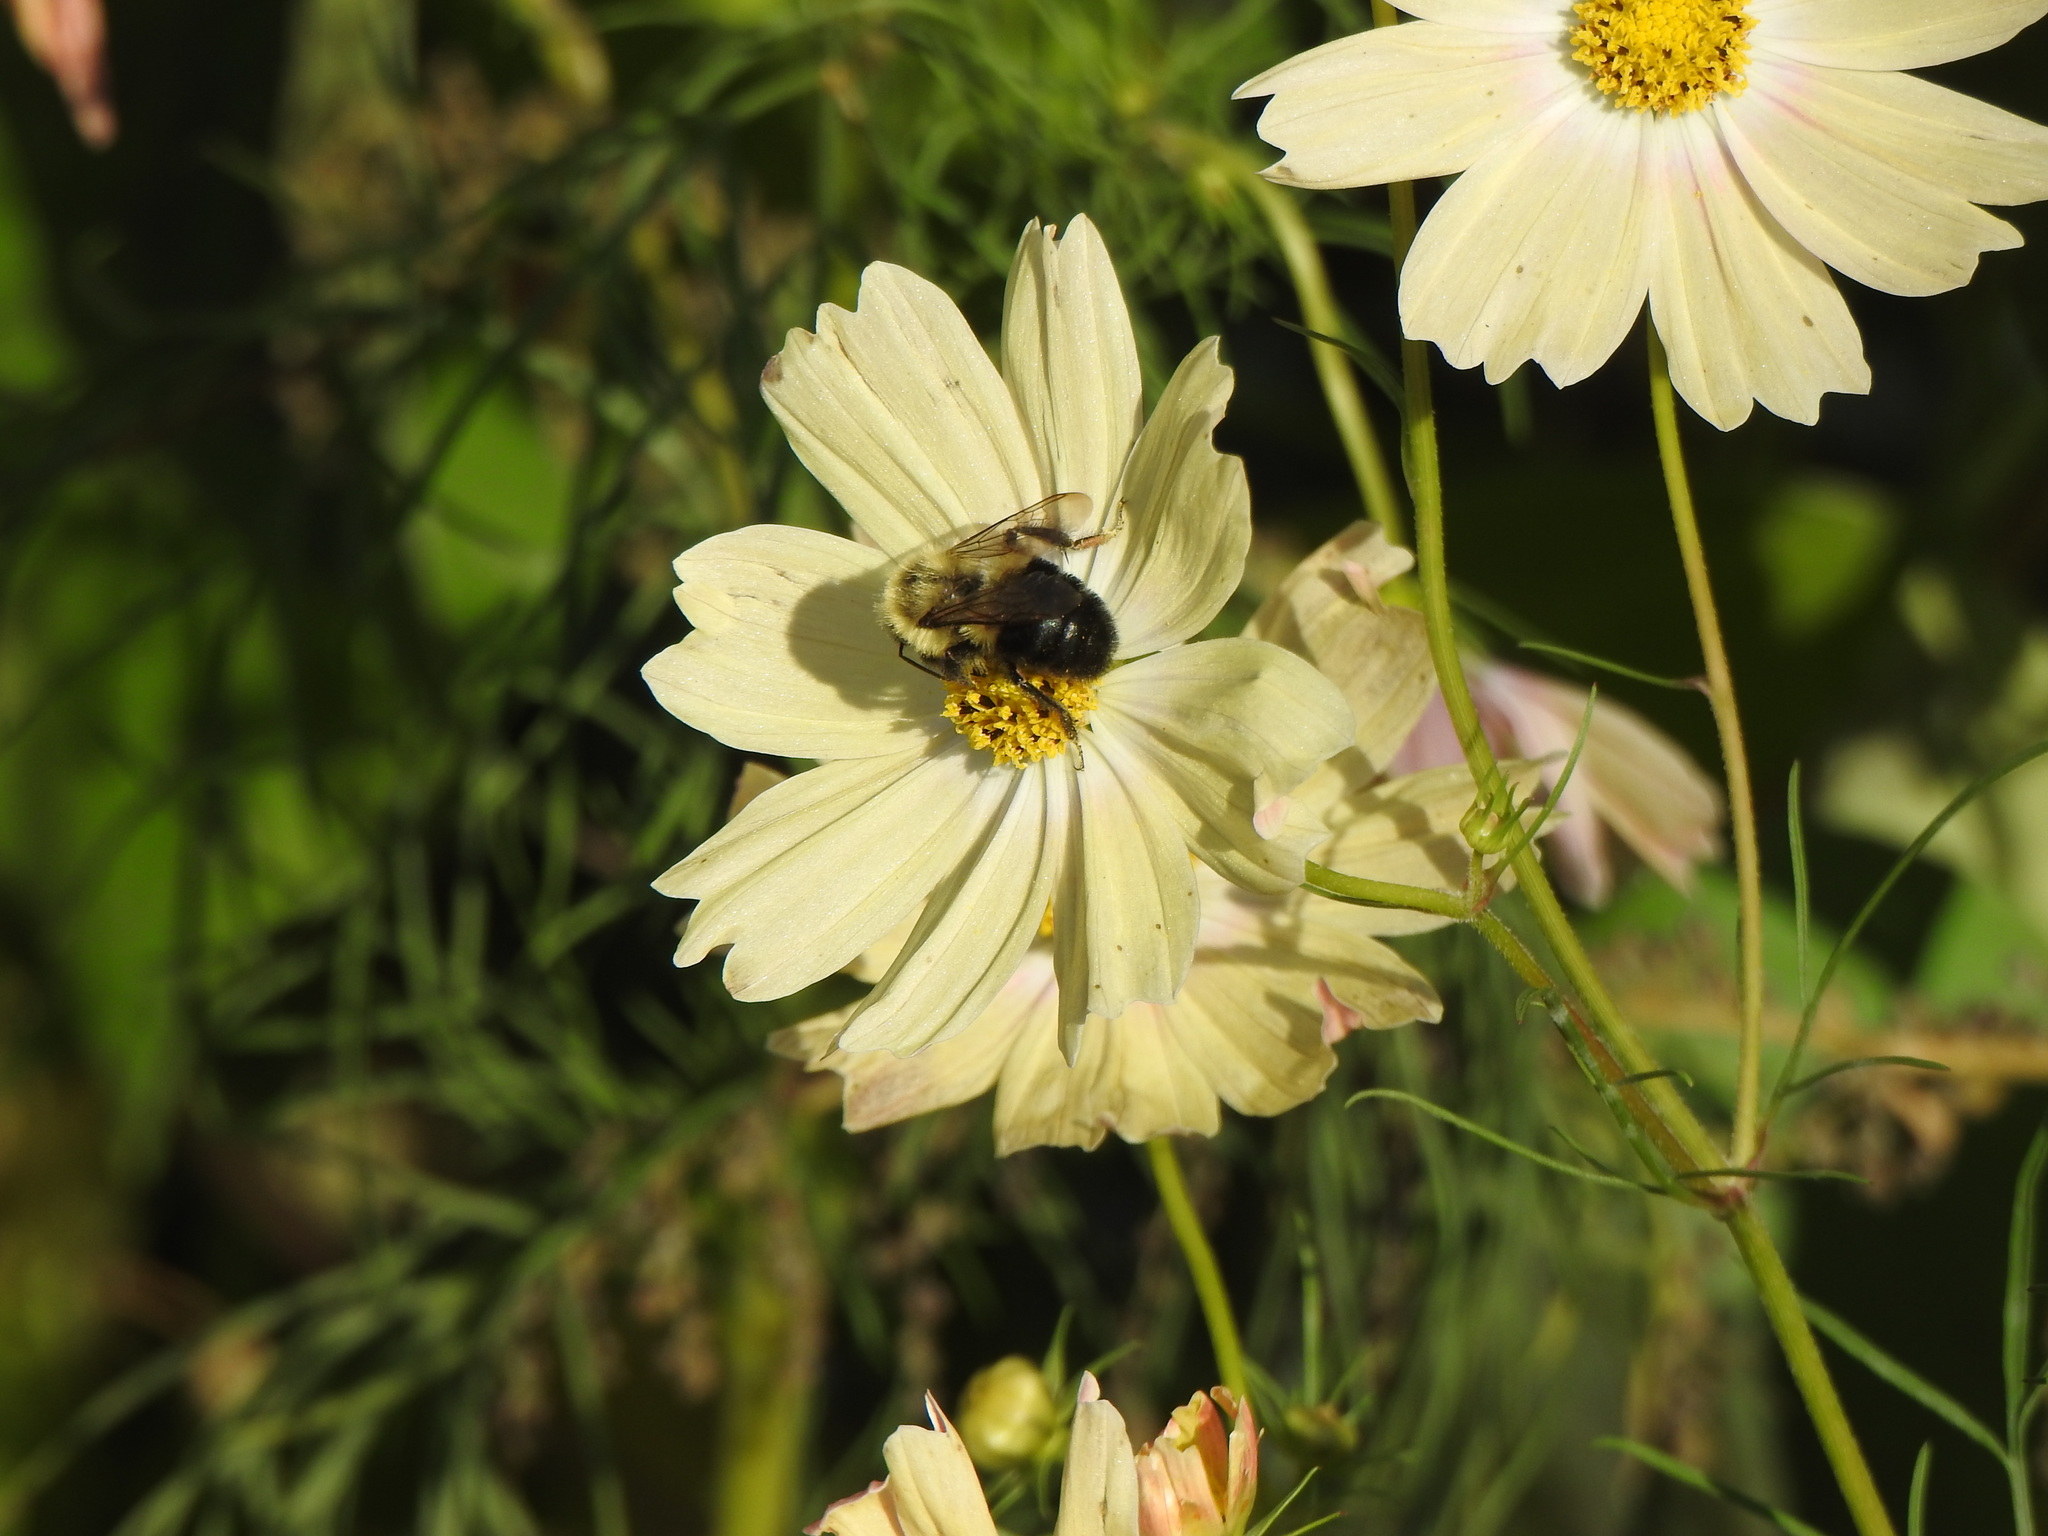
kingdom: Animalia
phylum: Arthropoda
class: Insecta
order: Hymenoptera
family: Apidae
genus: Bombus
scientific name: Bombus impatiens
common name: Common eastern bumble bee
